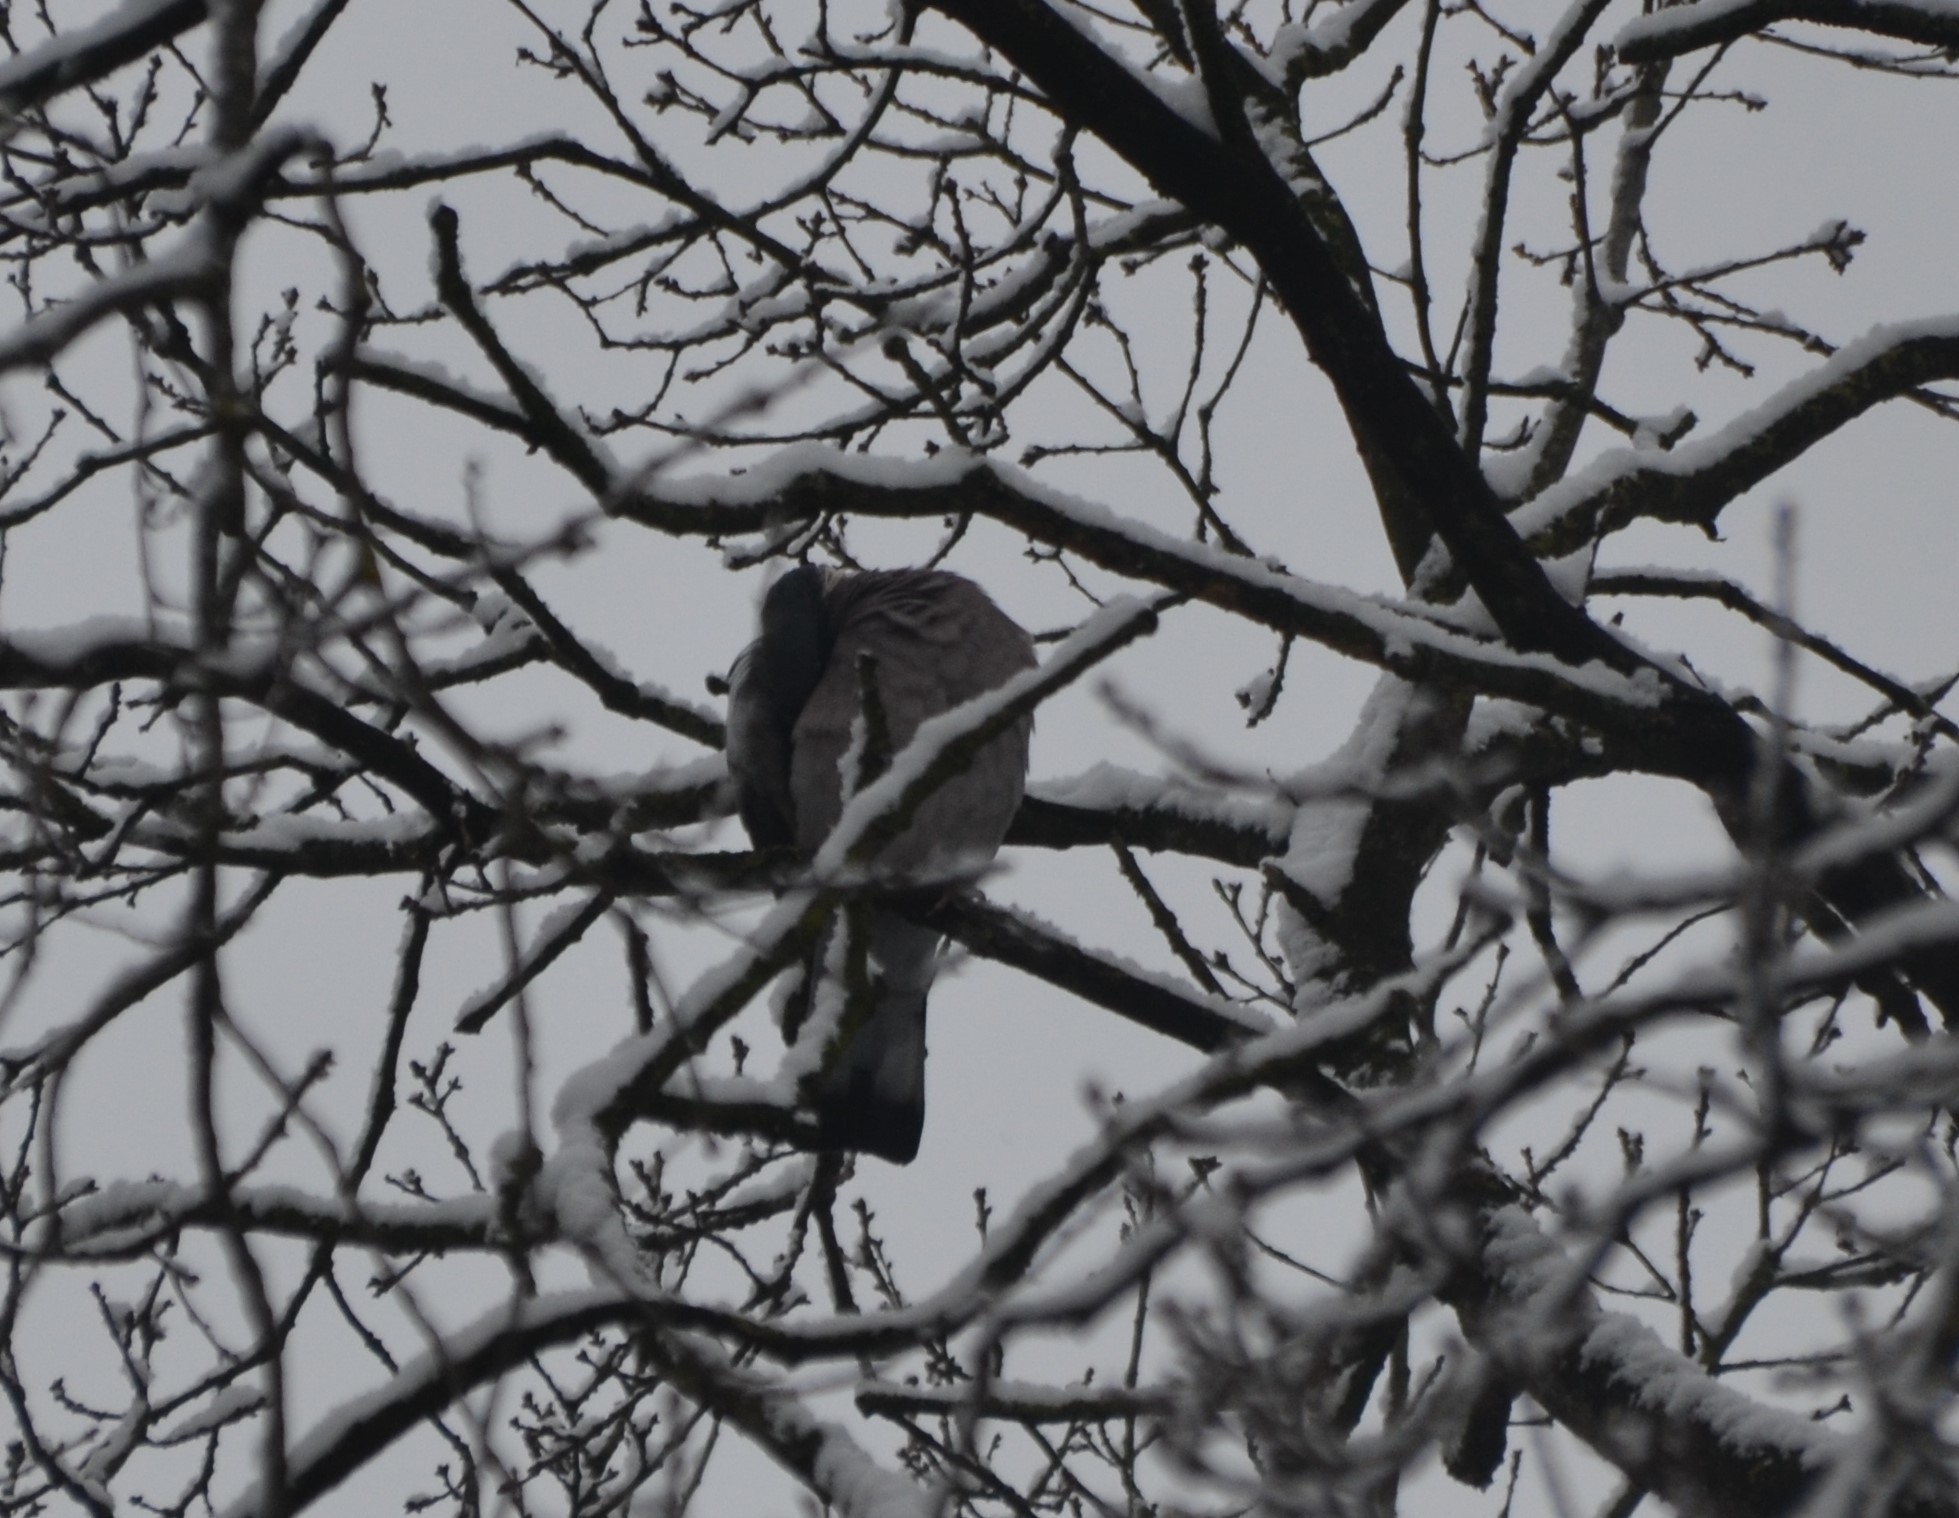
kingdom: Animalia
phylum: Chordata
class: Aves
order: Columbiformes
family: Columbidae
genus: Columba
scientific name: Columba palumbus
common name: Common wood pigeon
